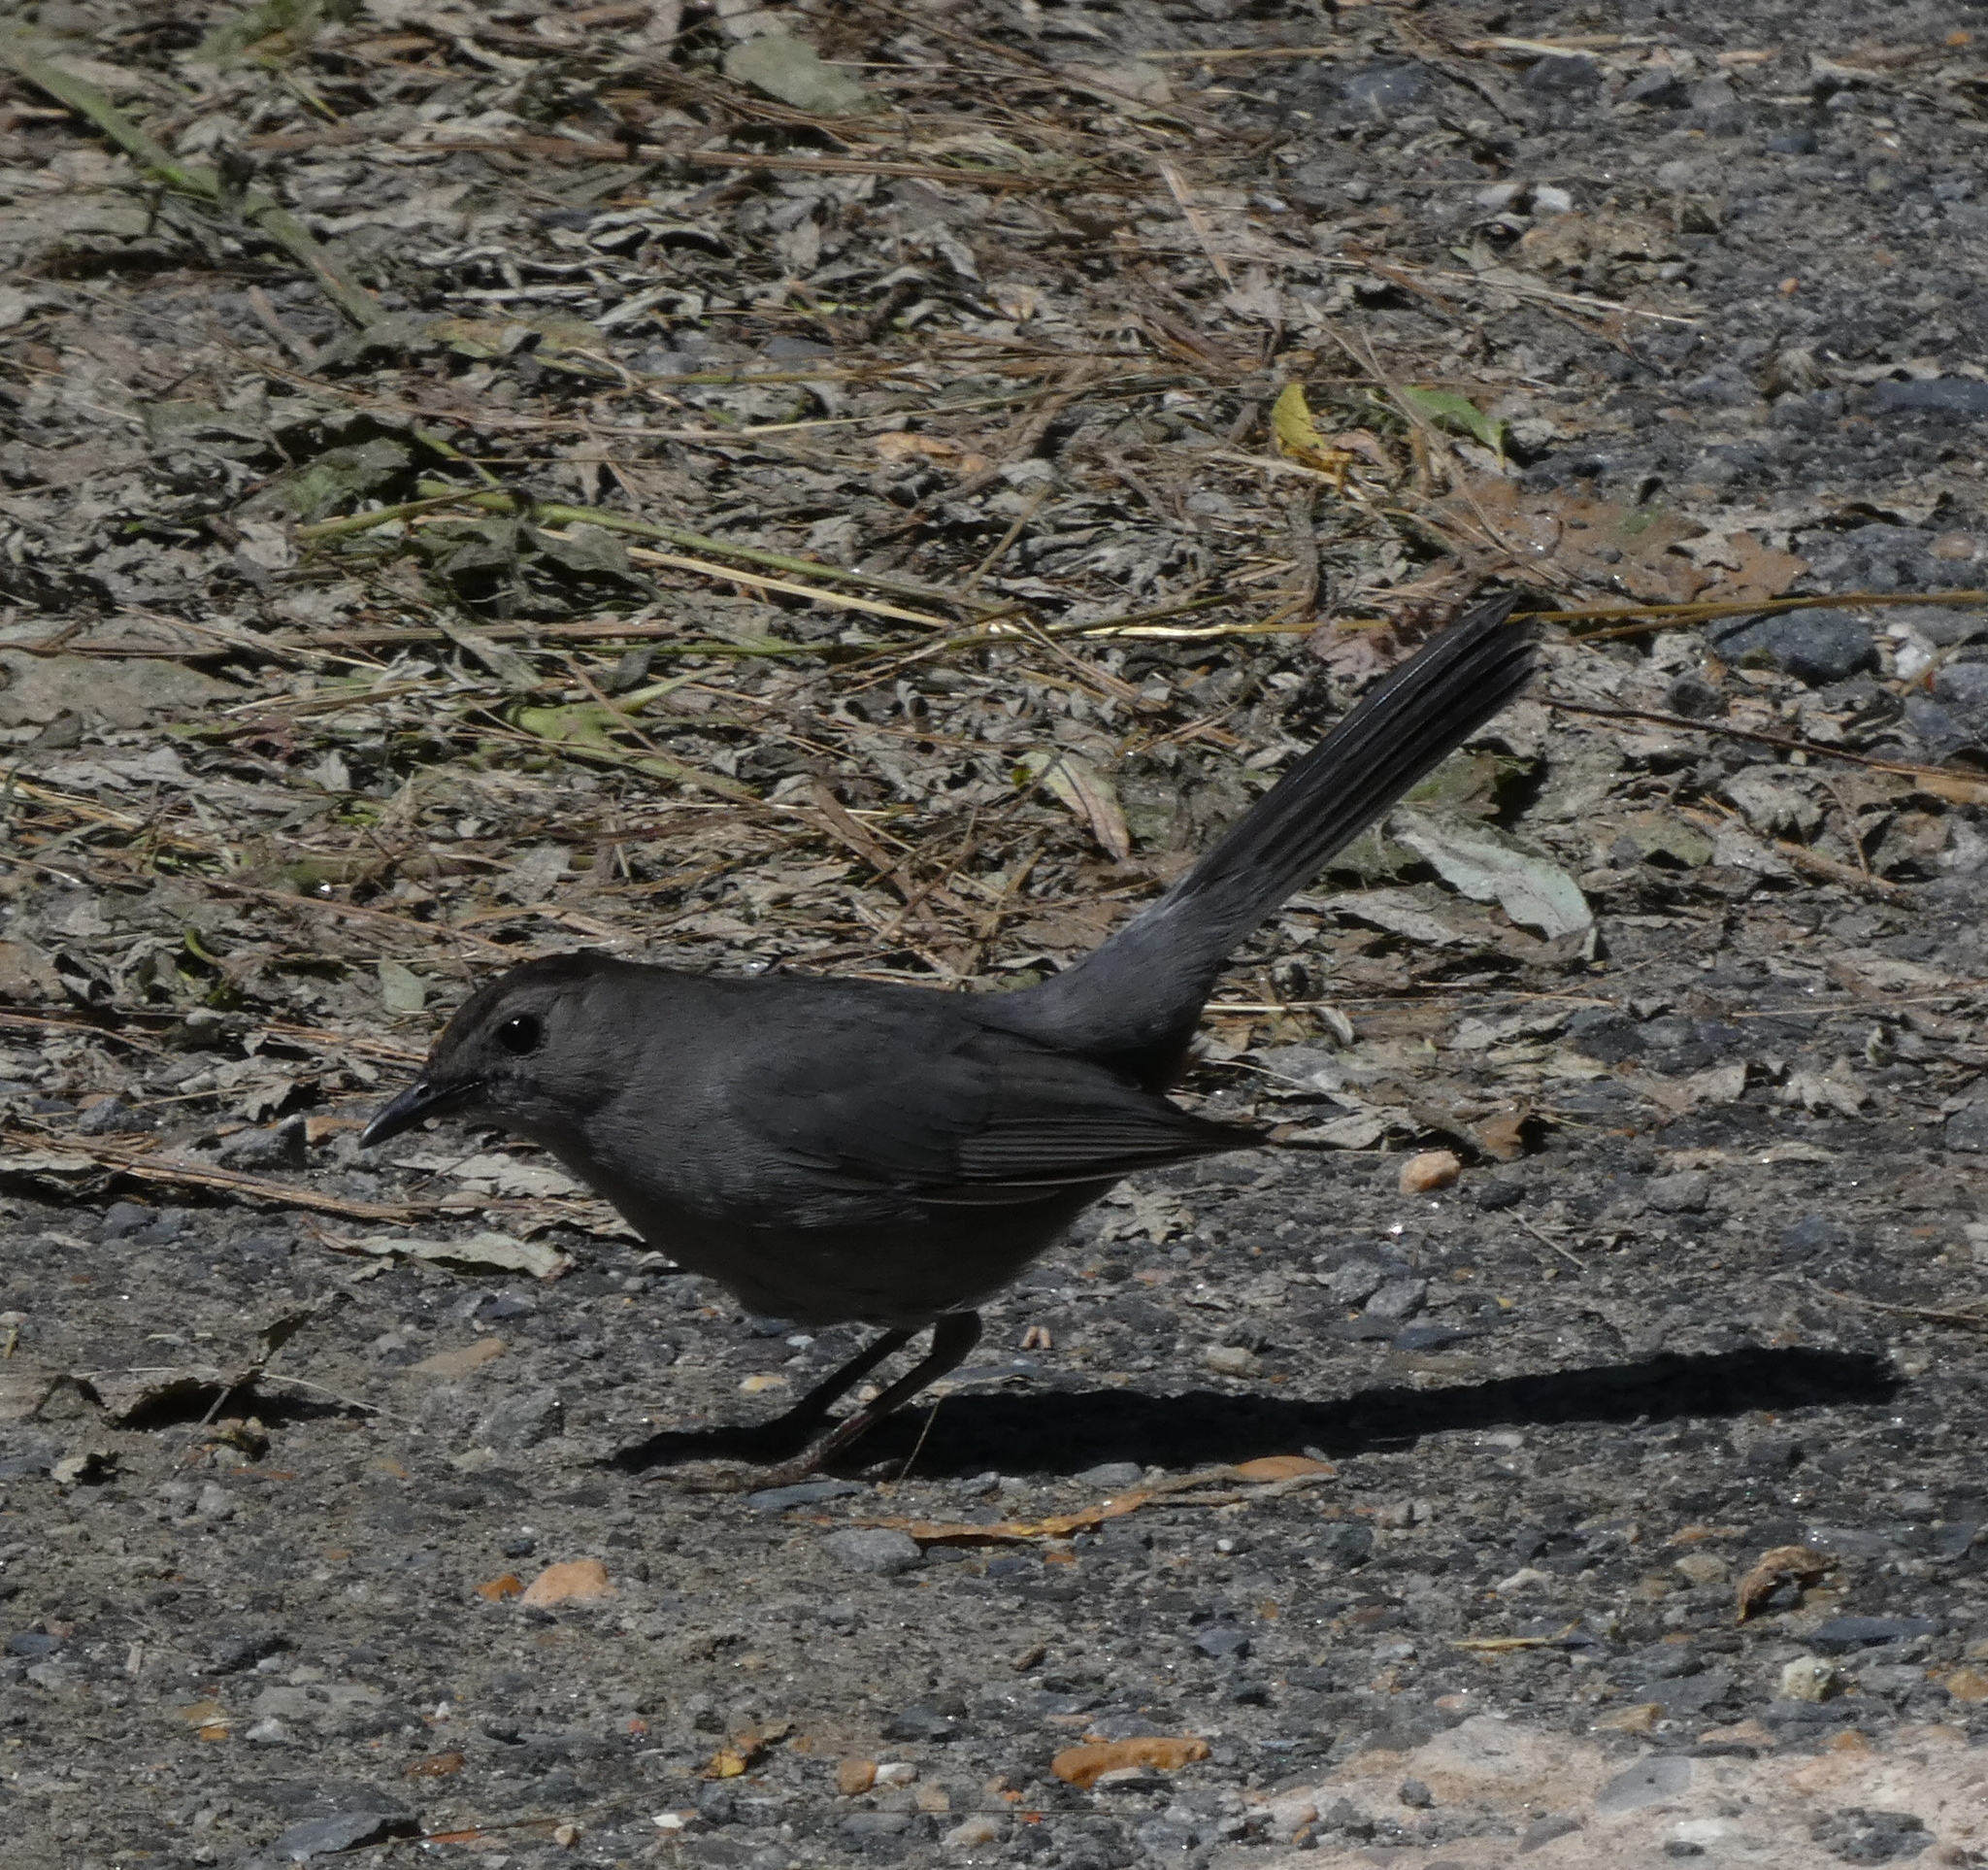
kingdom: Animalia
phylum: Chordata
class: Aves
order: Passeriformes
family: Mimidae
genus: Dumetella
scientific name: Dumetella carolinensis
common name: Gray catbird
